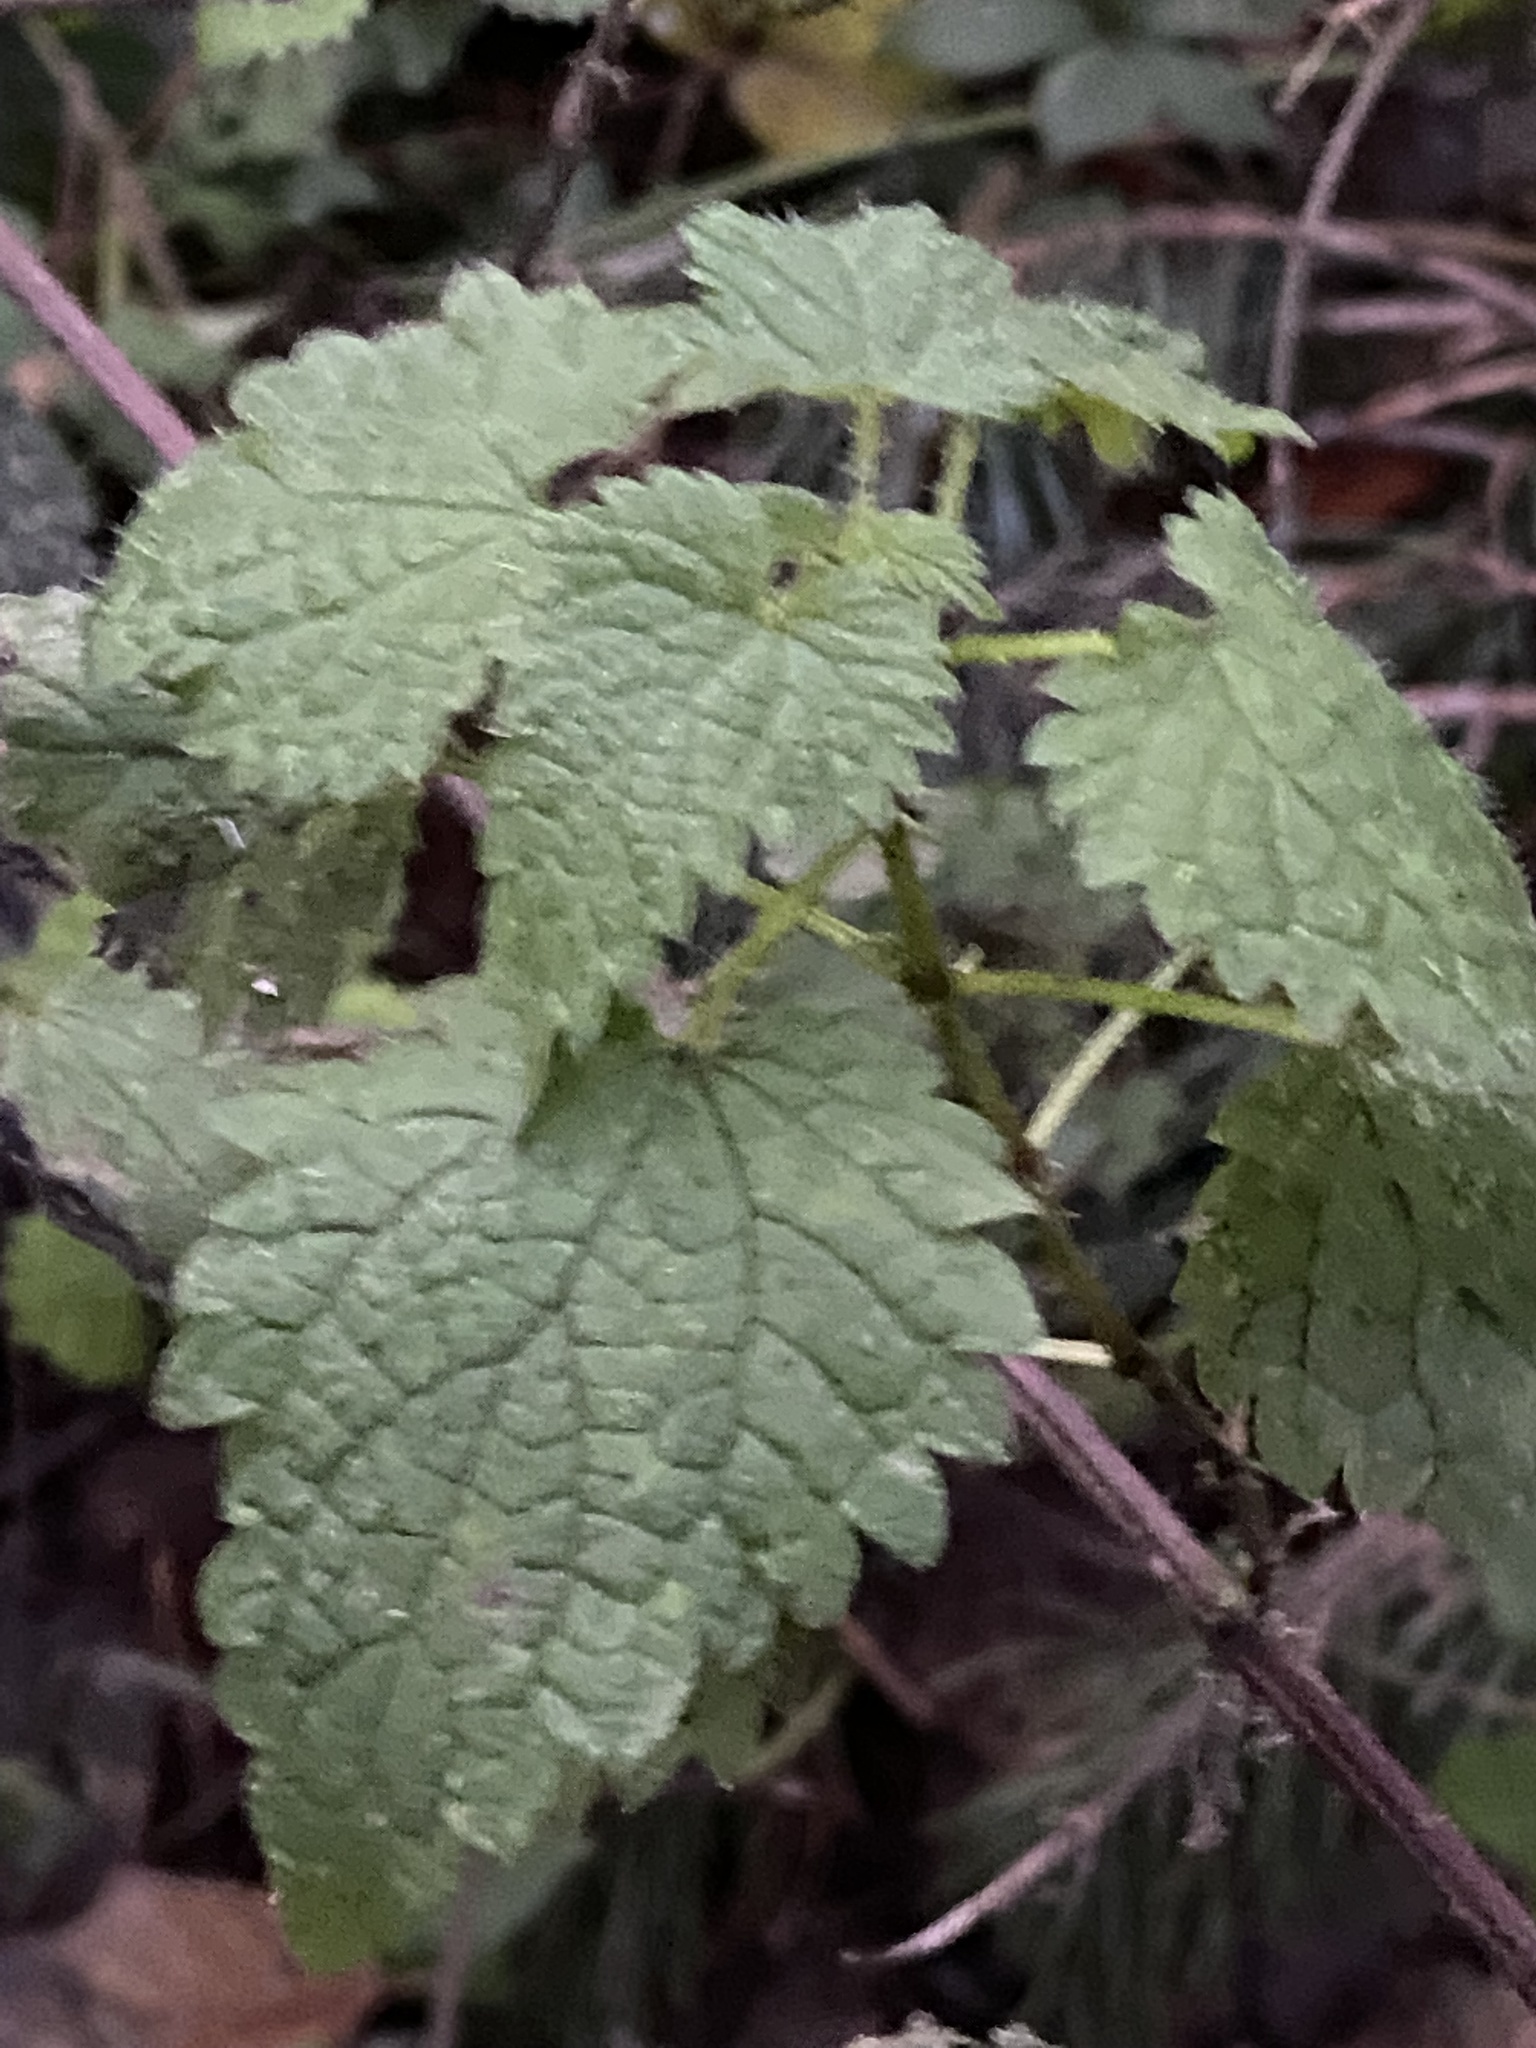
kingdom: Plantae
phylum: Tracheophyta
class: Magnoliopsida
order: Rosales
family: Urticaceae
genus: Urtica
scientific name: Urtica dioica
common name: Common nettle
